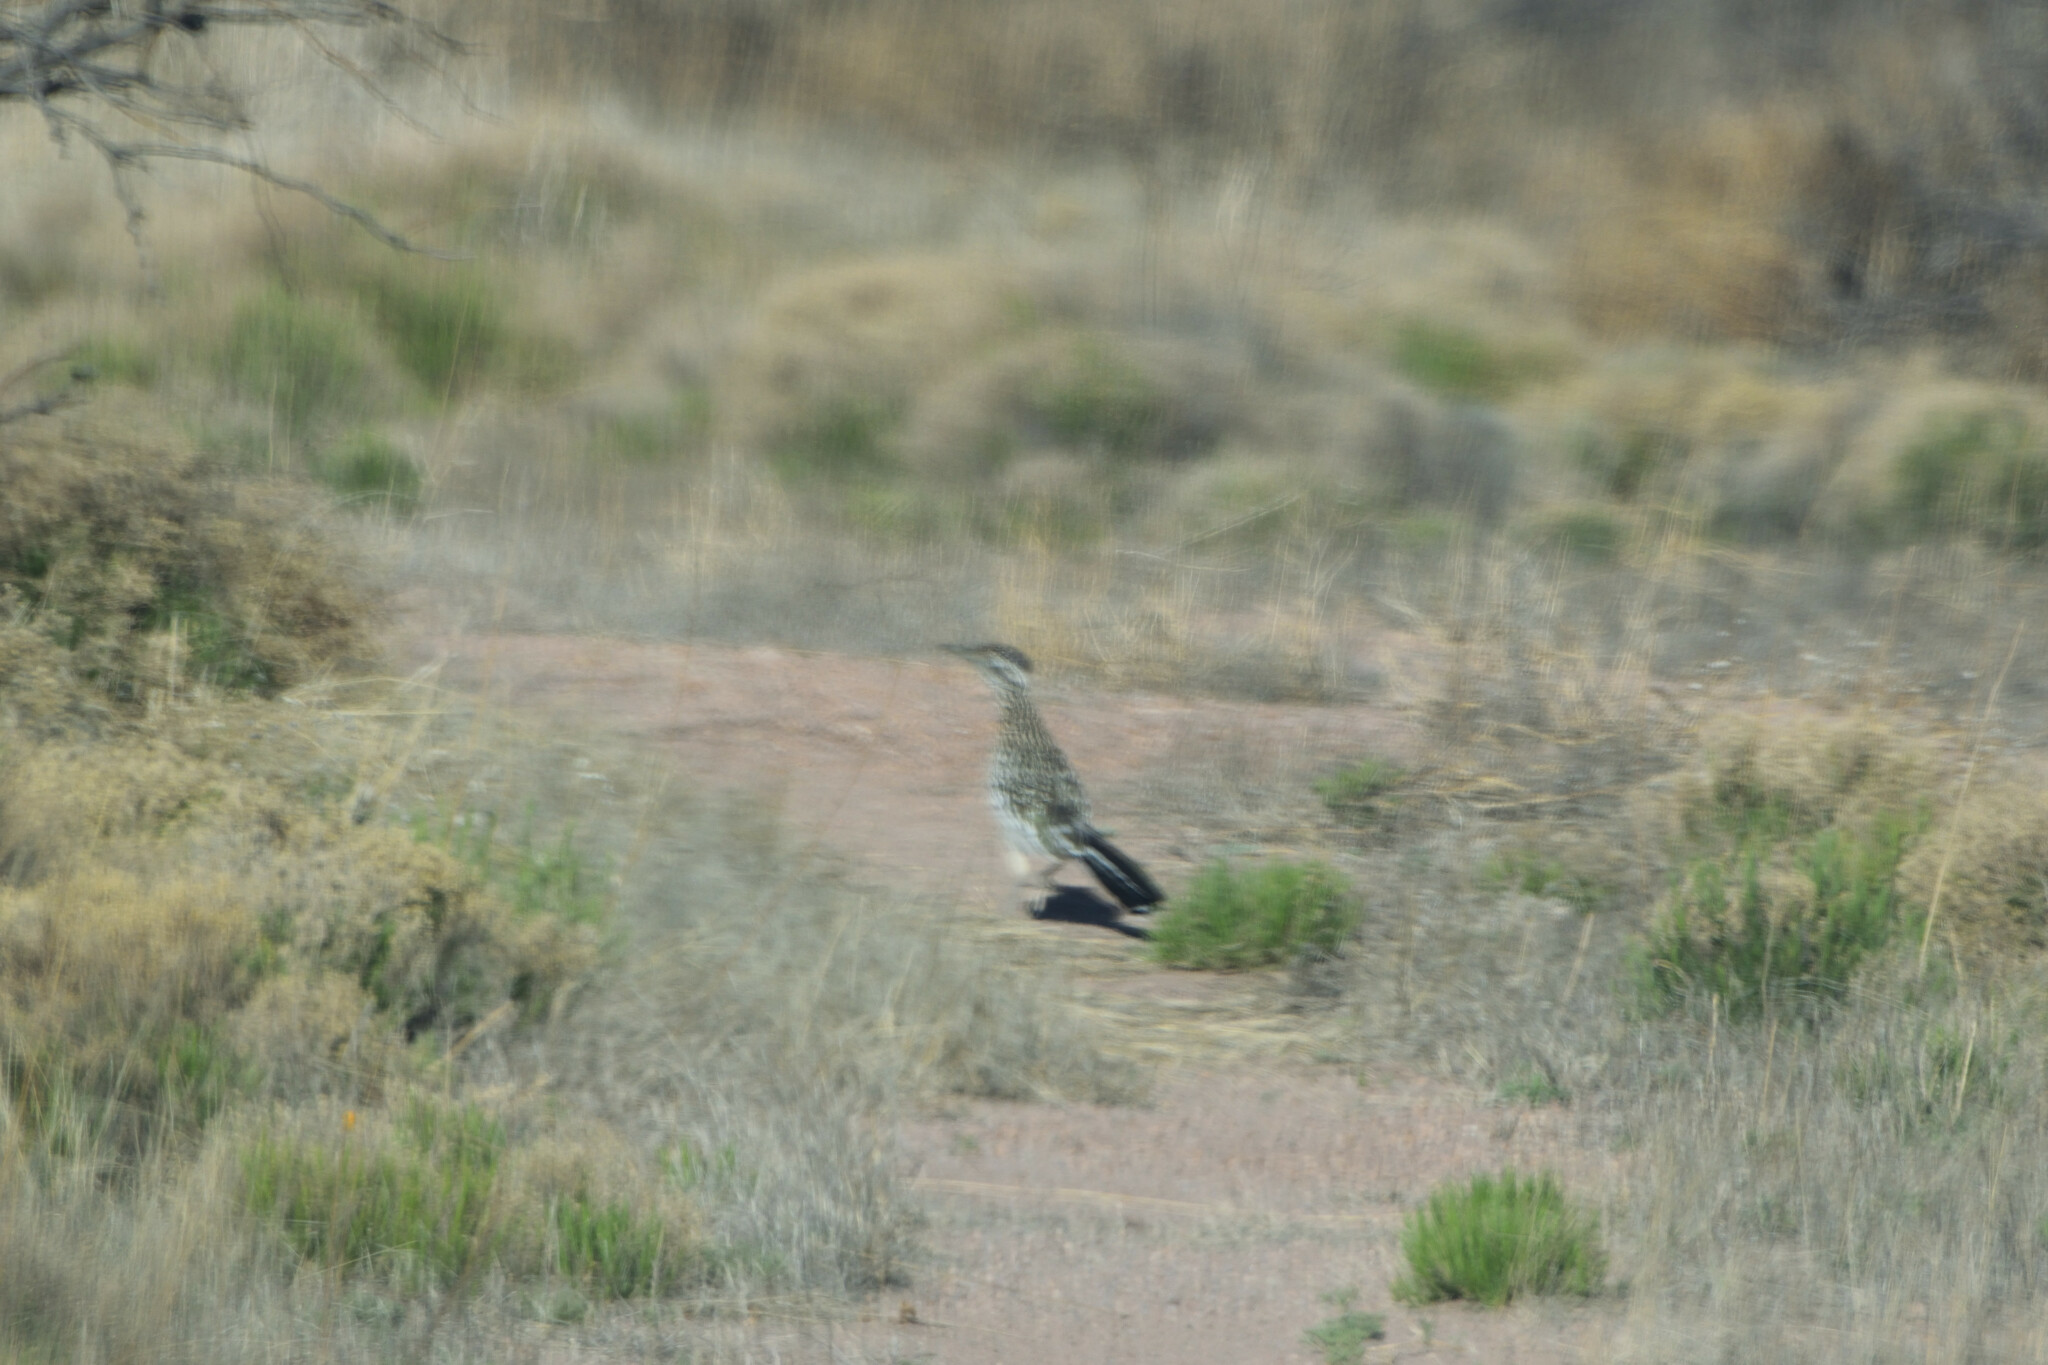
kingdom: Animalia
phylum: Chordata
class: Aves
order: Cuculiformes
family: Cuculidae
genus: Geococcyx
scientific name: Geococcyx californianus
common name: Greater roadrunner
